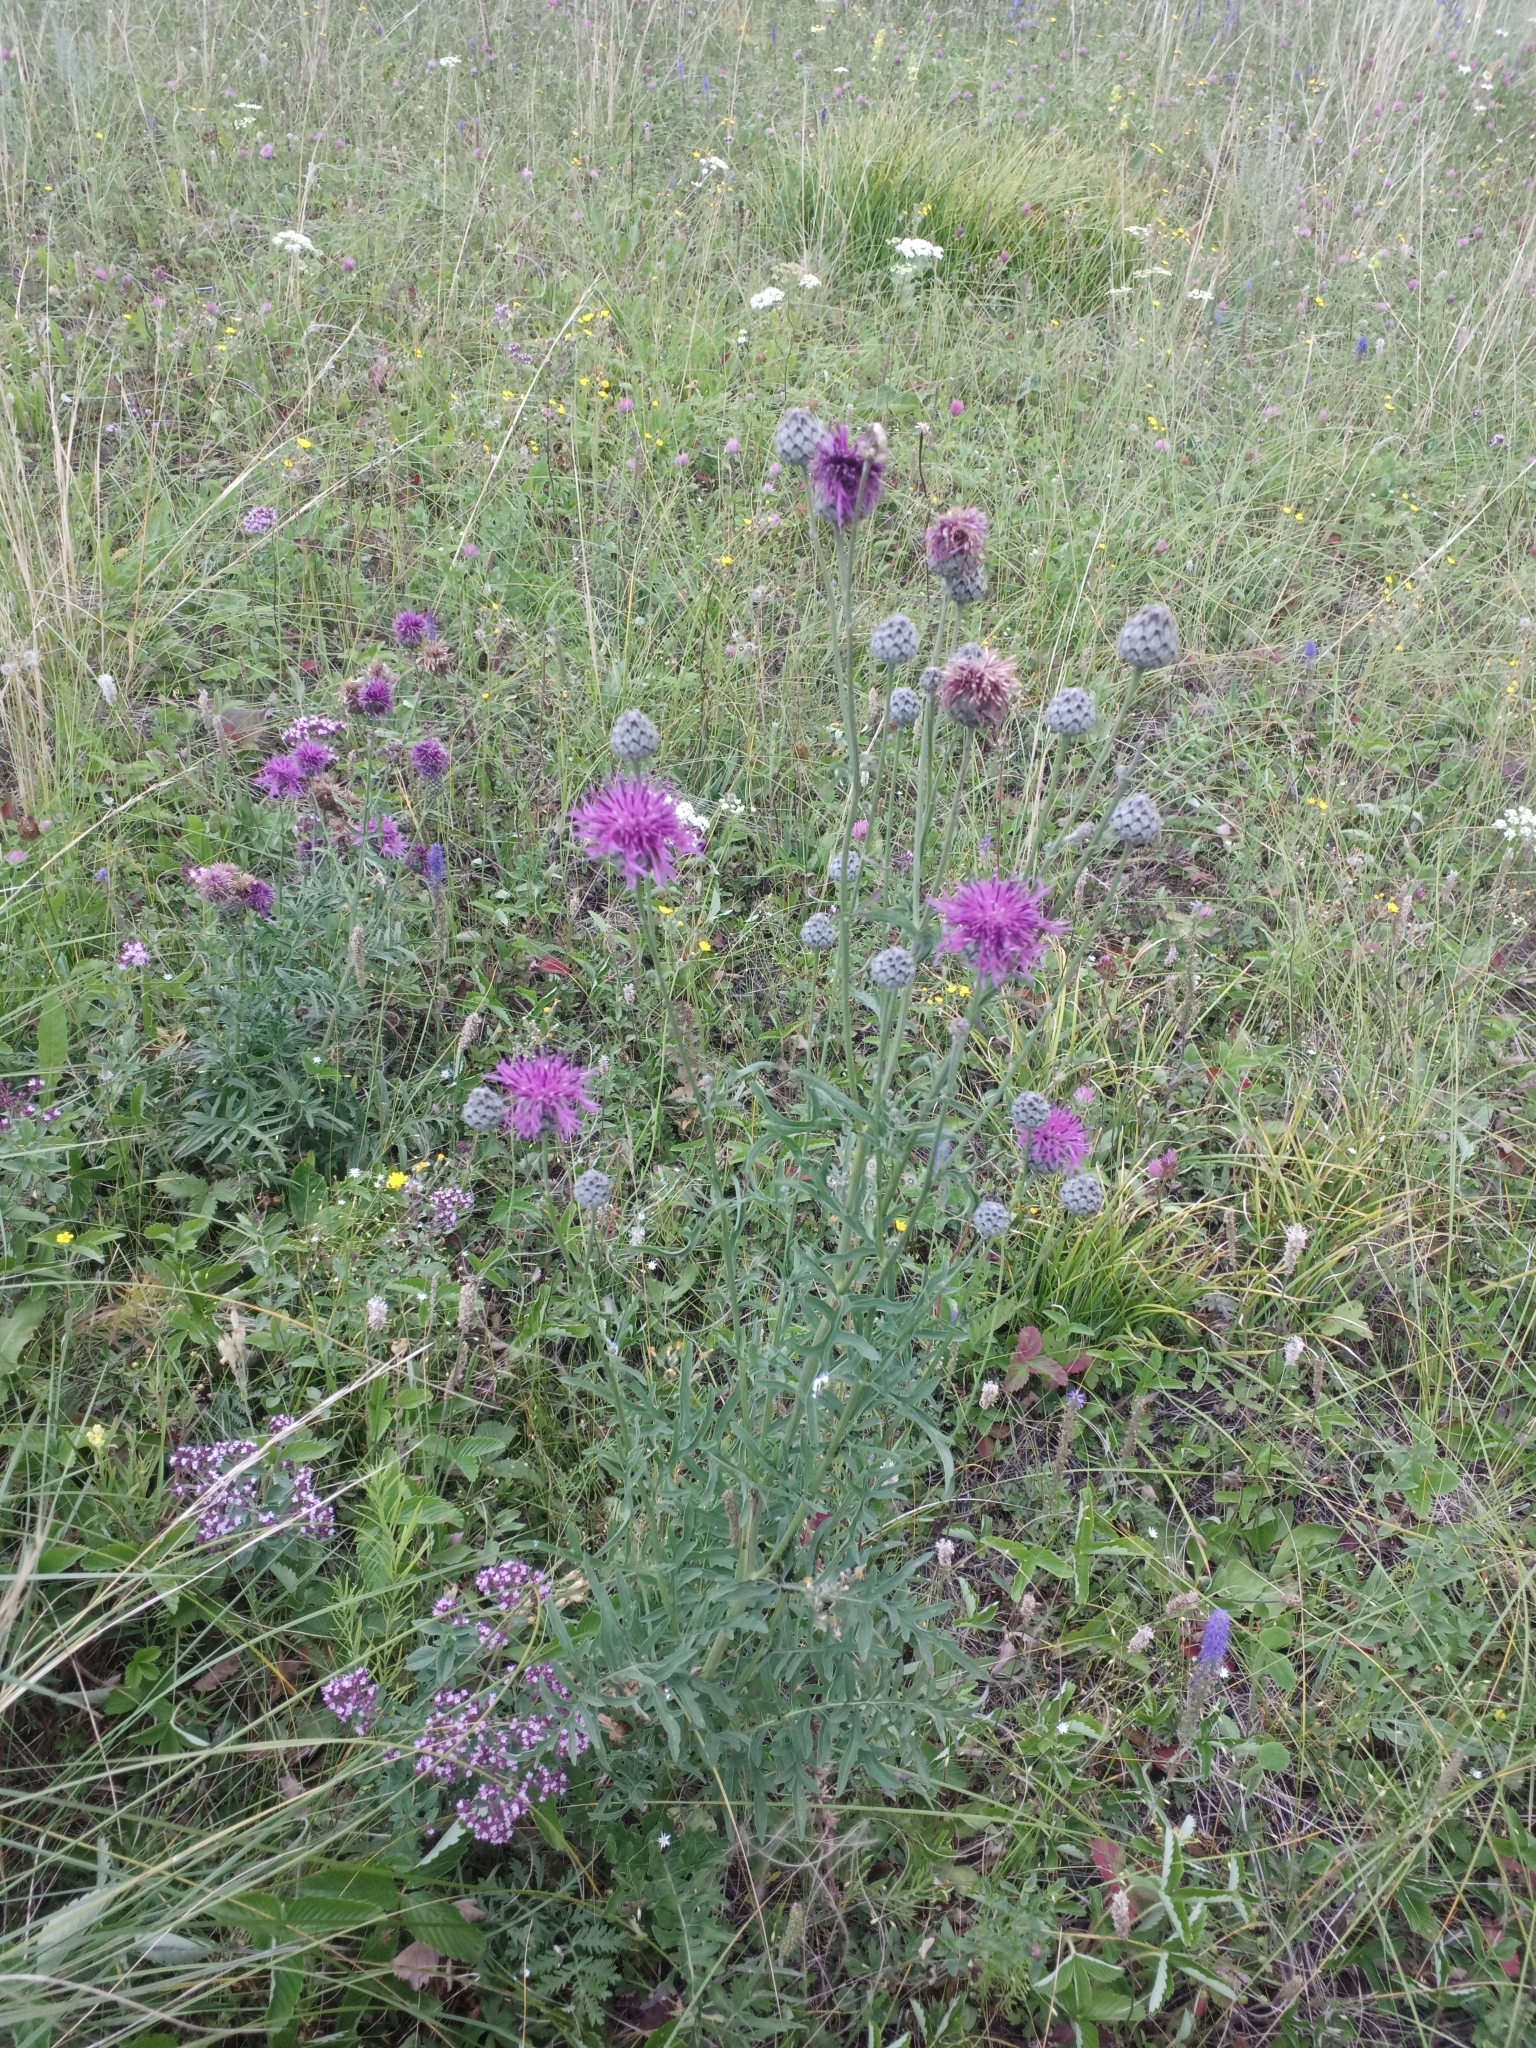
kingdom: Plantae
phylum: Tracheophyta
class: Magnoliopsida
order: Asterales
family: Asteraceae
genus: Centaurea
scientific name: Centaurea scabiosa
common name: Greater knapweed
